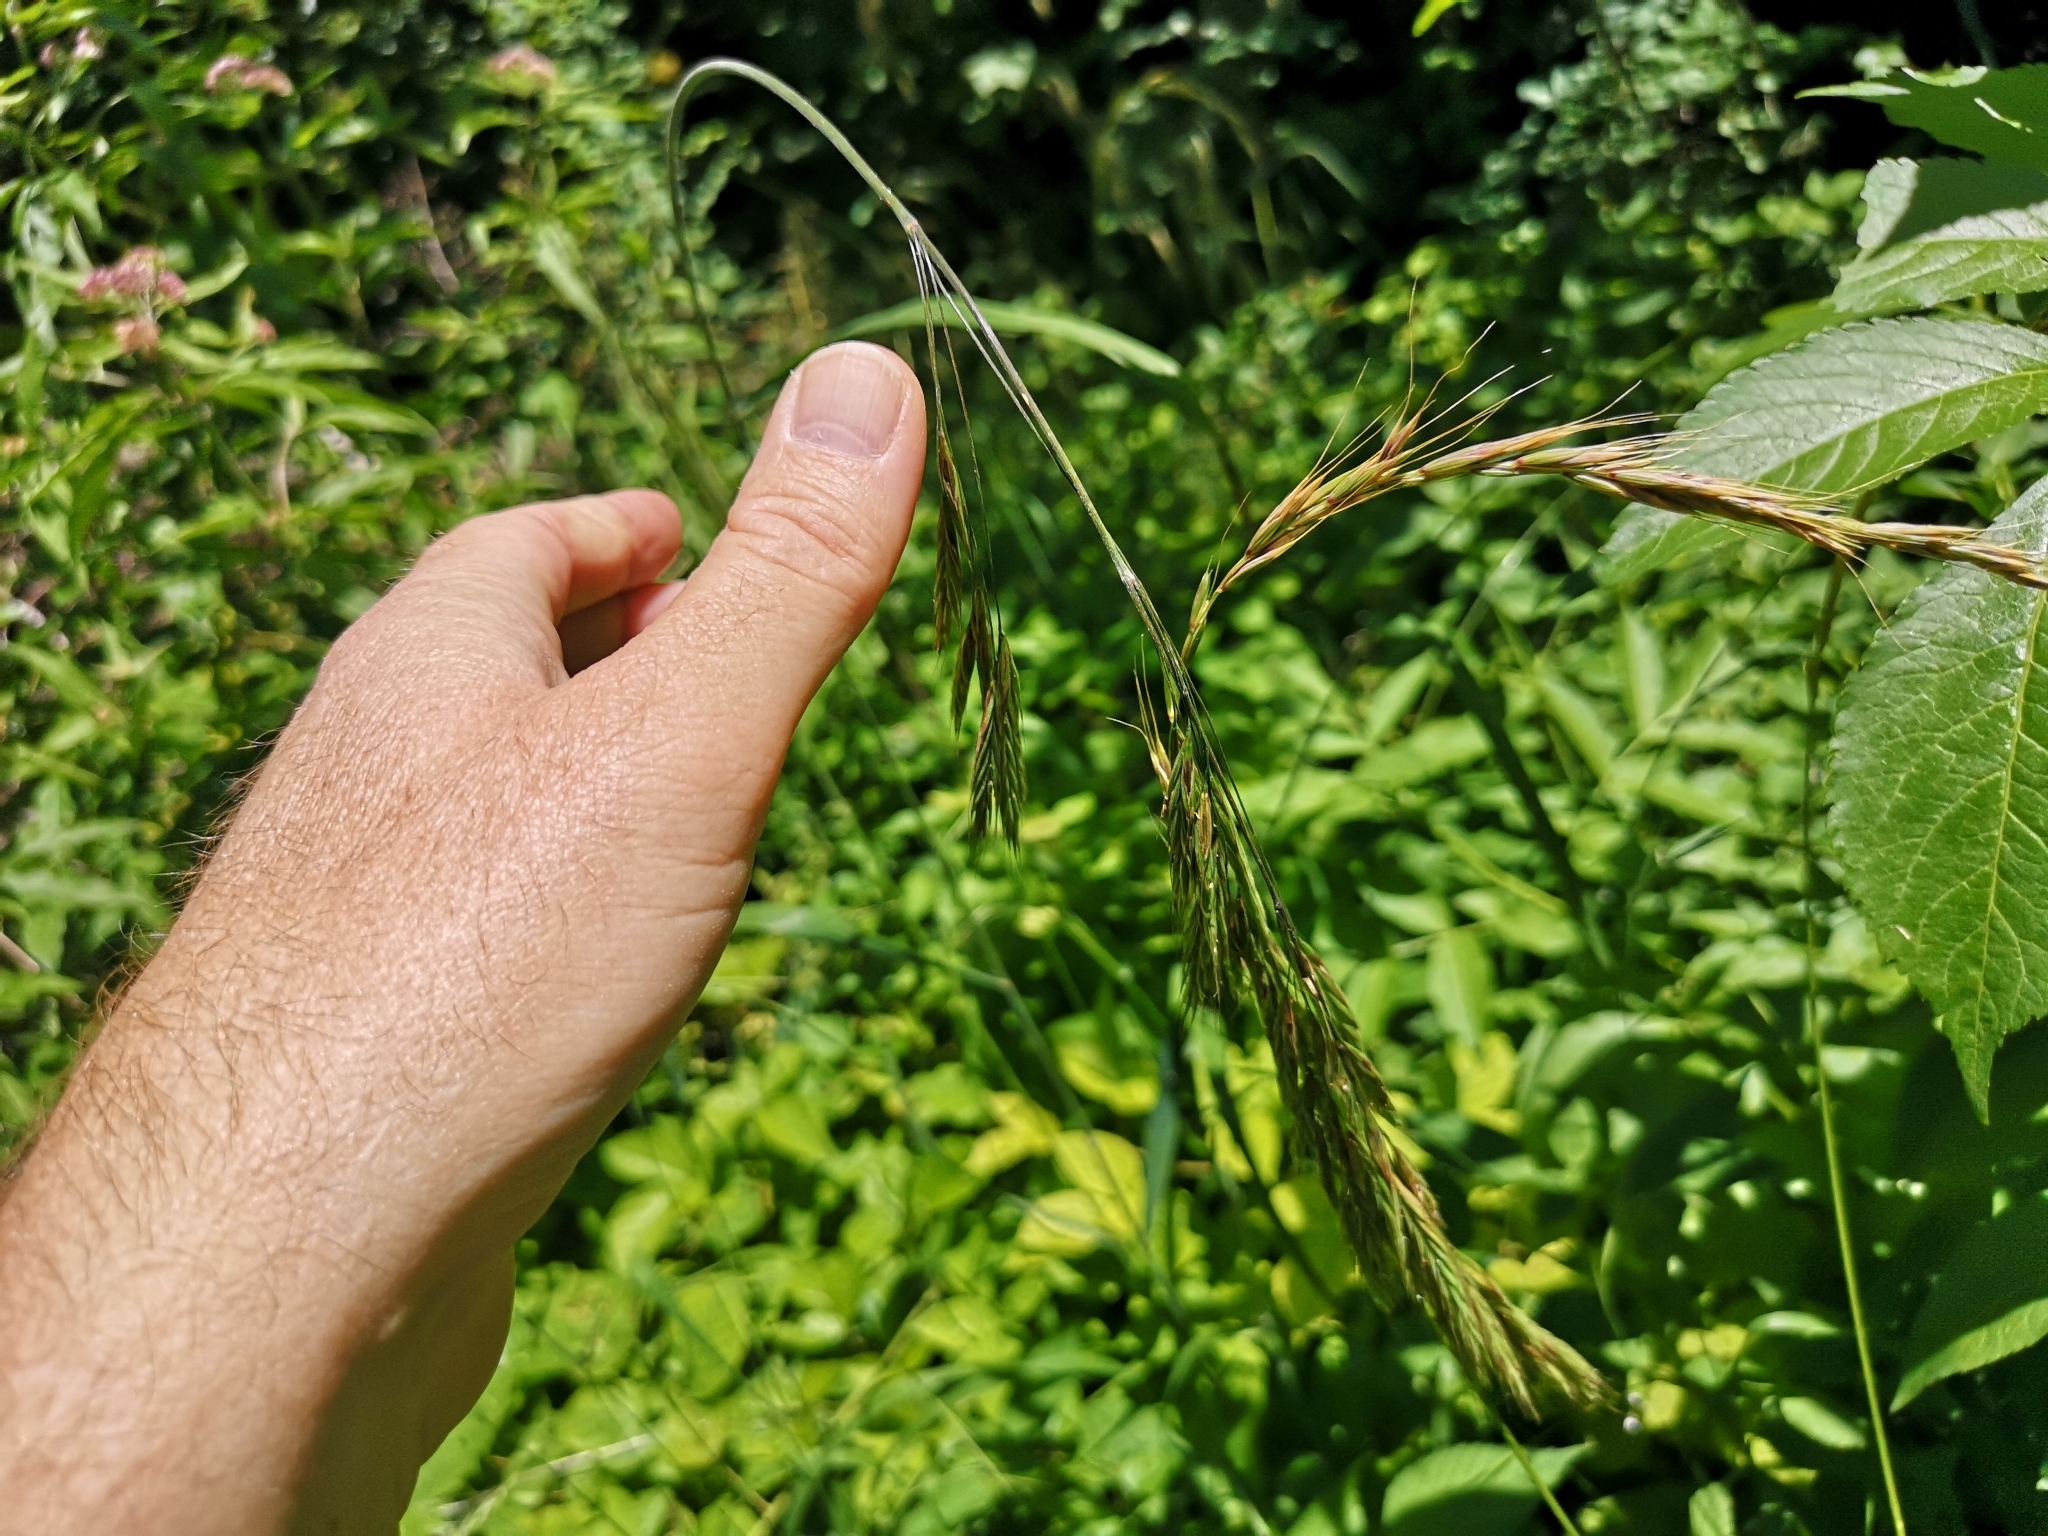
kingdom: Plantae
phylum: Tracheophyta
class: Liliopsida
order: Poales
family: Poaceae
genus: Bromus
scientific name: Bromus benekenii
